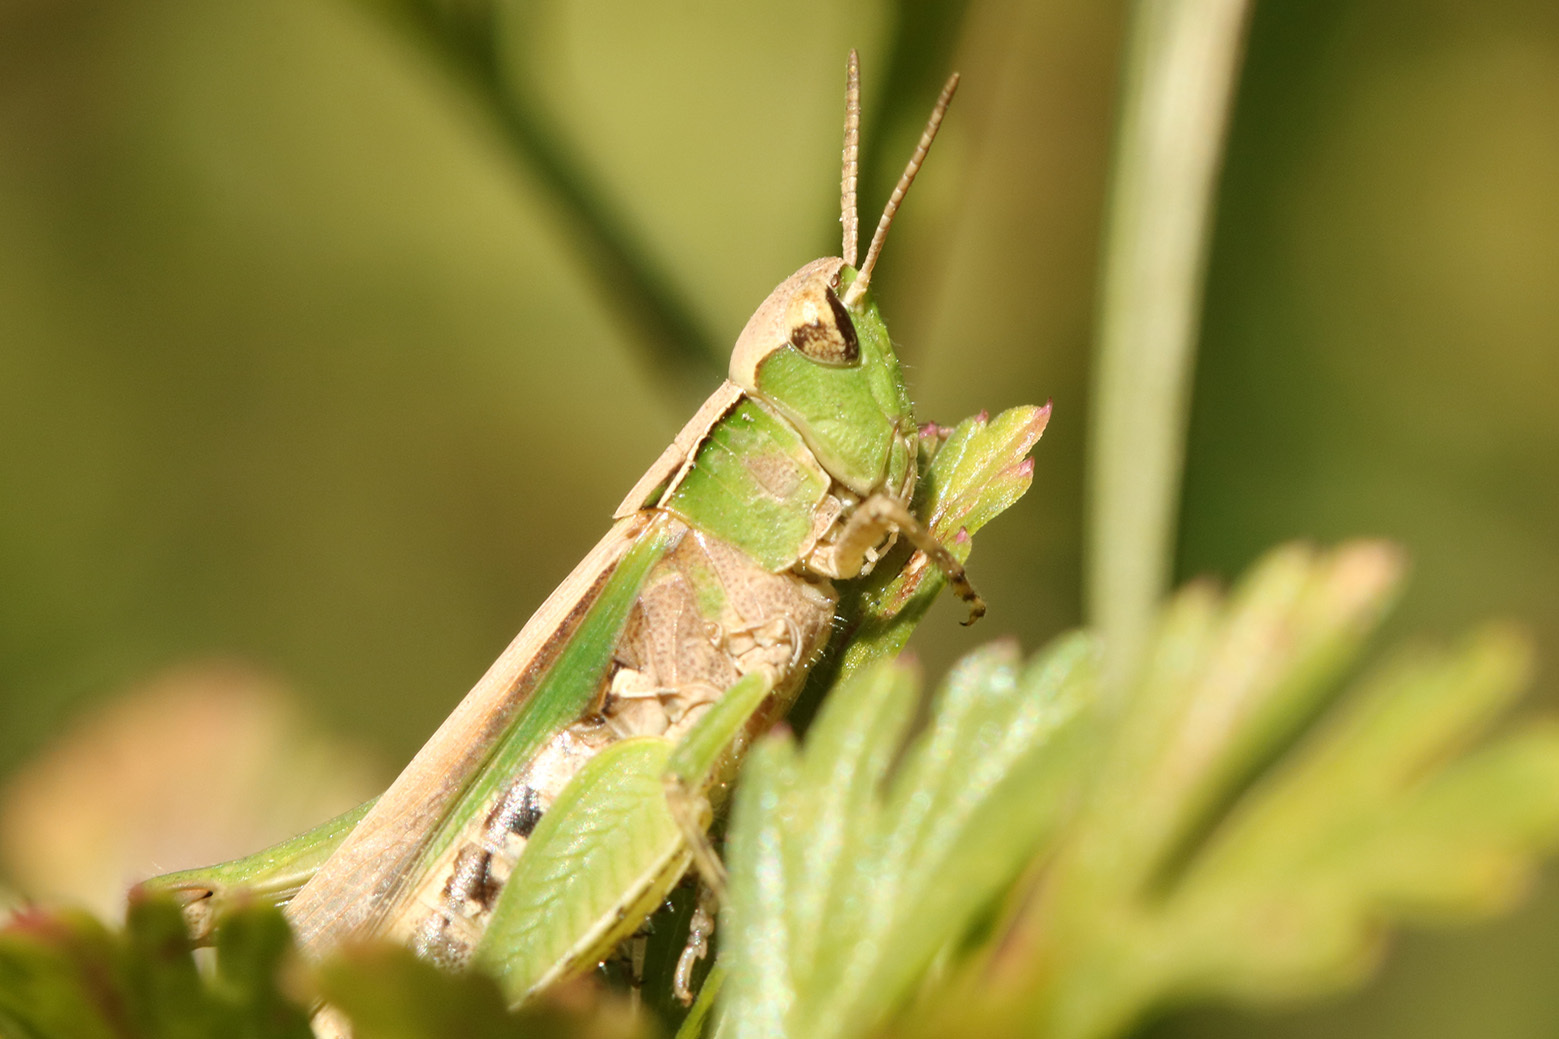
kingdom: Animalia
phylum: Arthropoda
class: Insecta
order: Orthoptera
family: Acrididae
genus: Orphulella
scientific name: Orphulella punctata
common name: Slant-faced grasshopper
